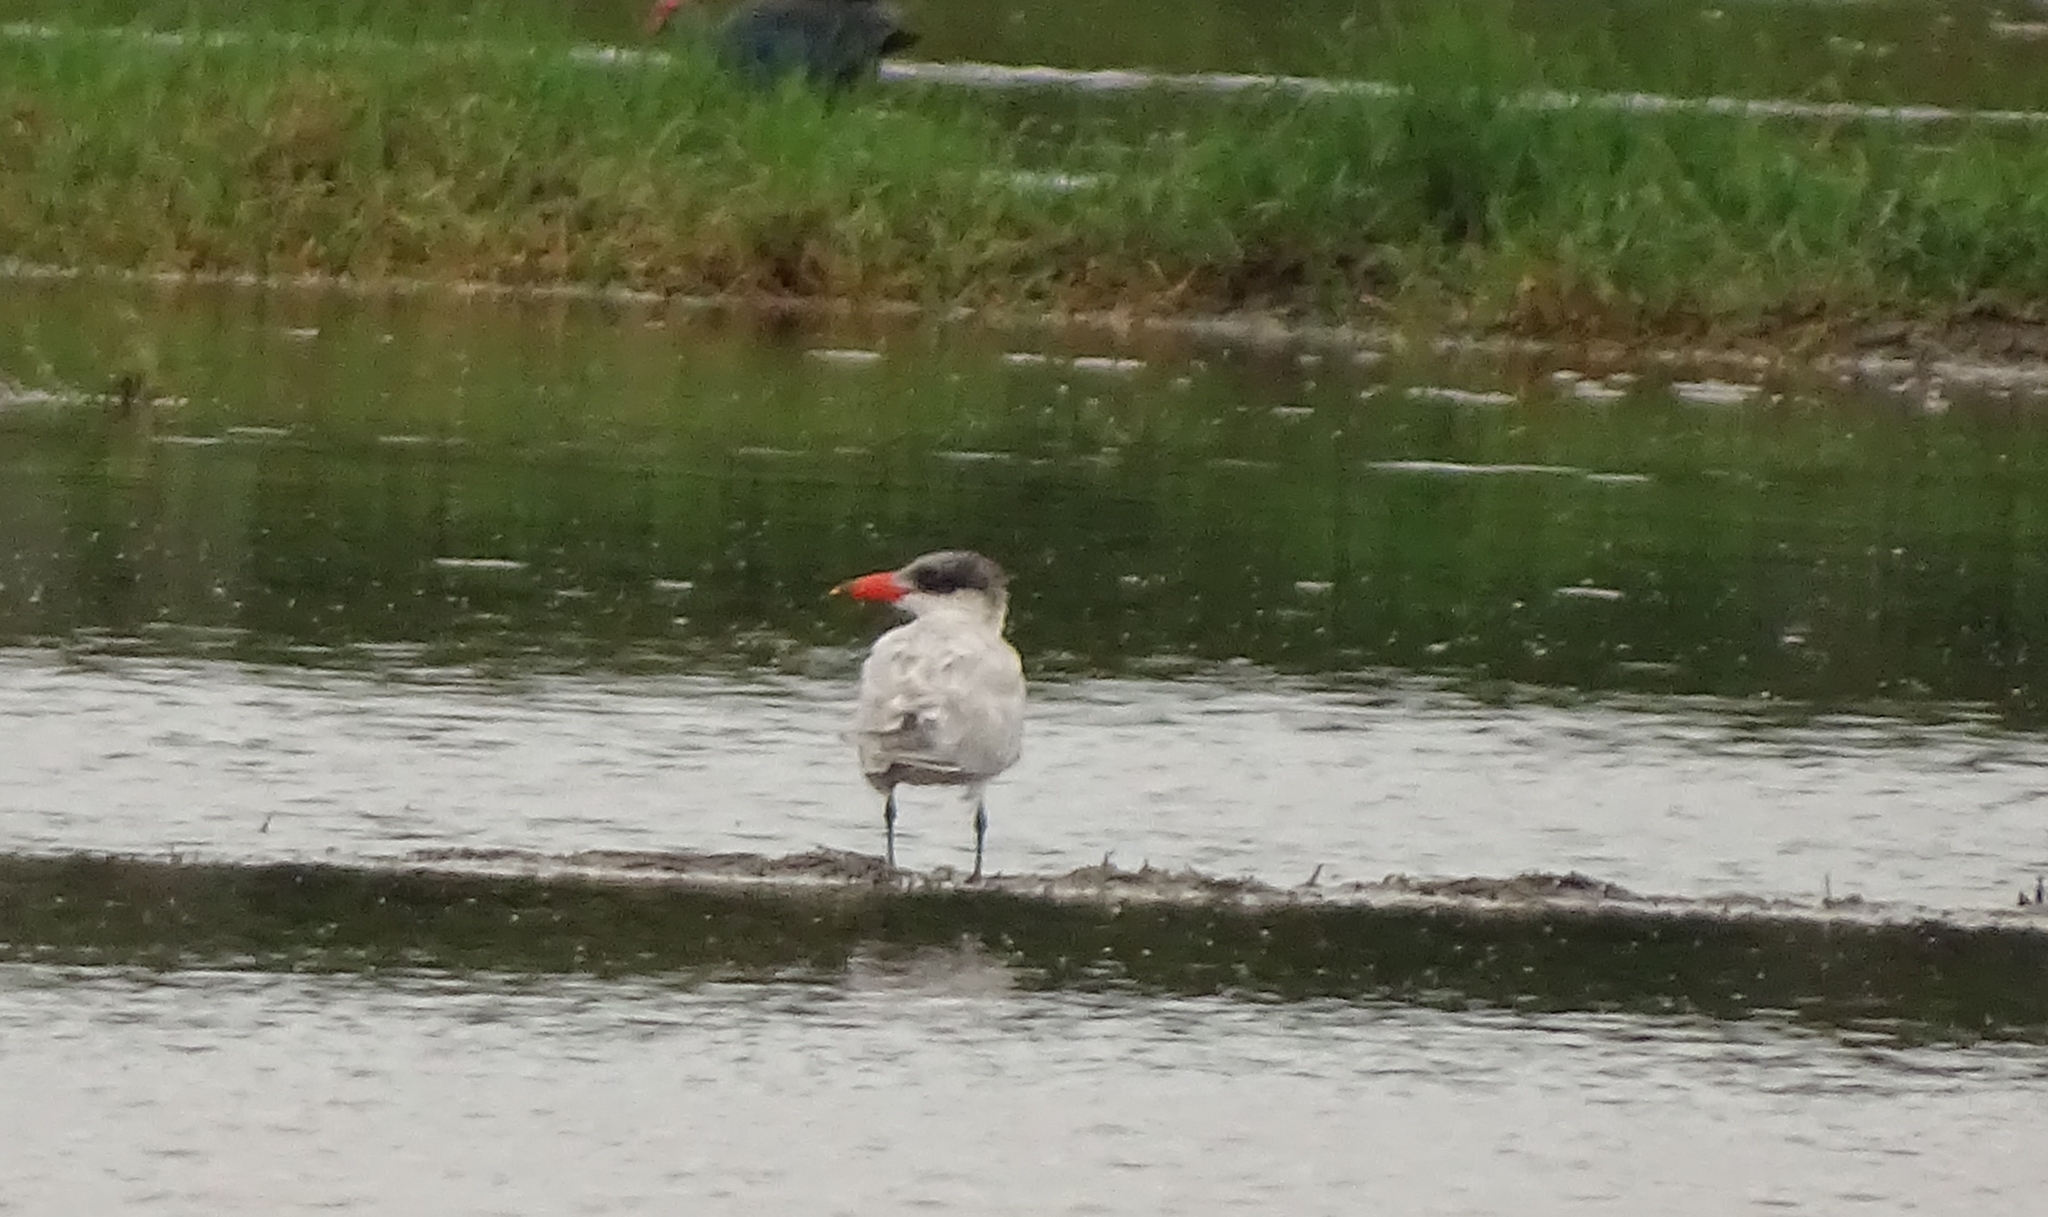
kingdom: Animalia
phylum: Chordata
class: Aves
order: Charadriiformes
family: Laridae
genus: Hydroprogne
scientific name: Hydroprogne caspia
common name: Caspian tern
